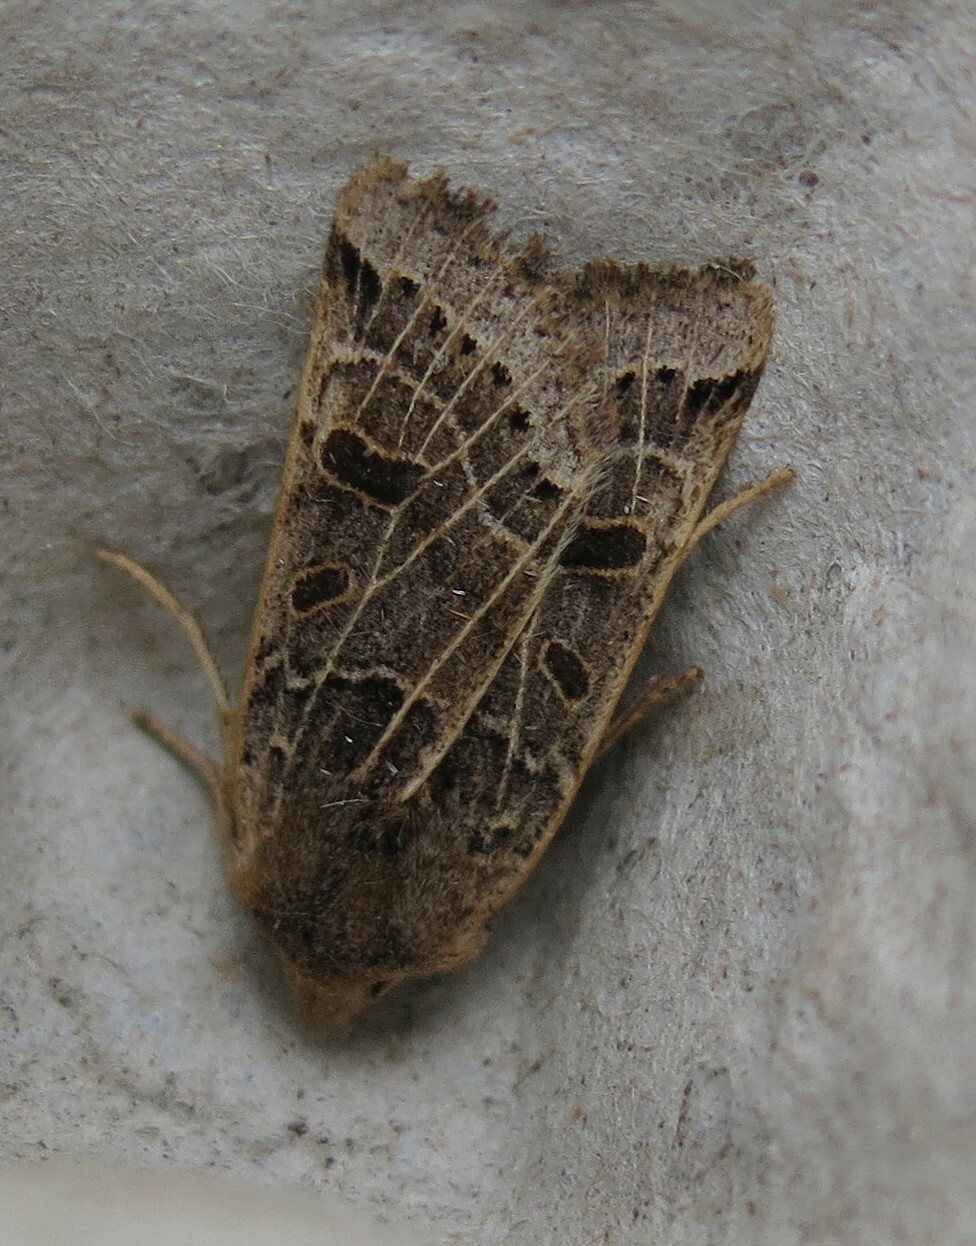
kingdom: Animalia
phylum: Arthropoda
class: Insecta
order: Lepidoptera
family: Noctuidae
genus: Agrochola
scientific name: Agrochola lunosa
